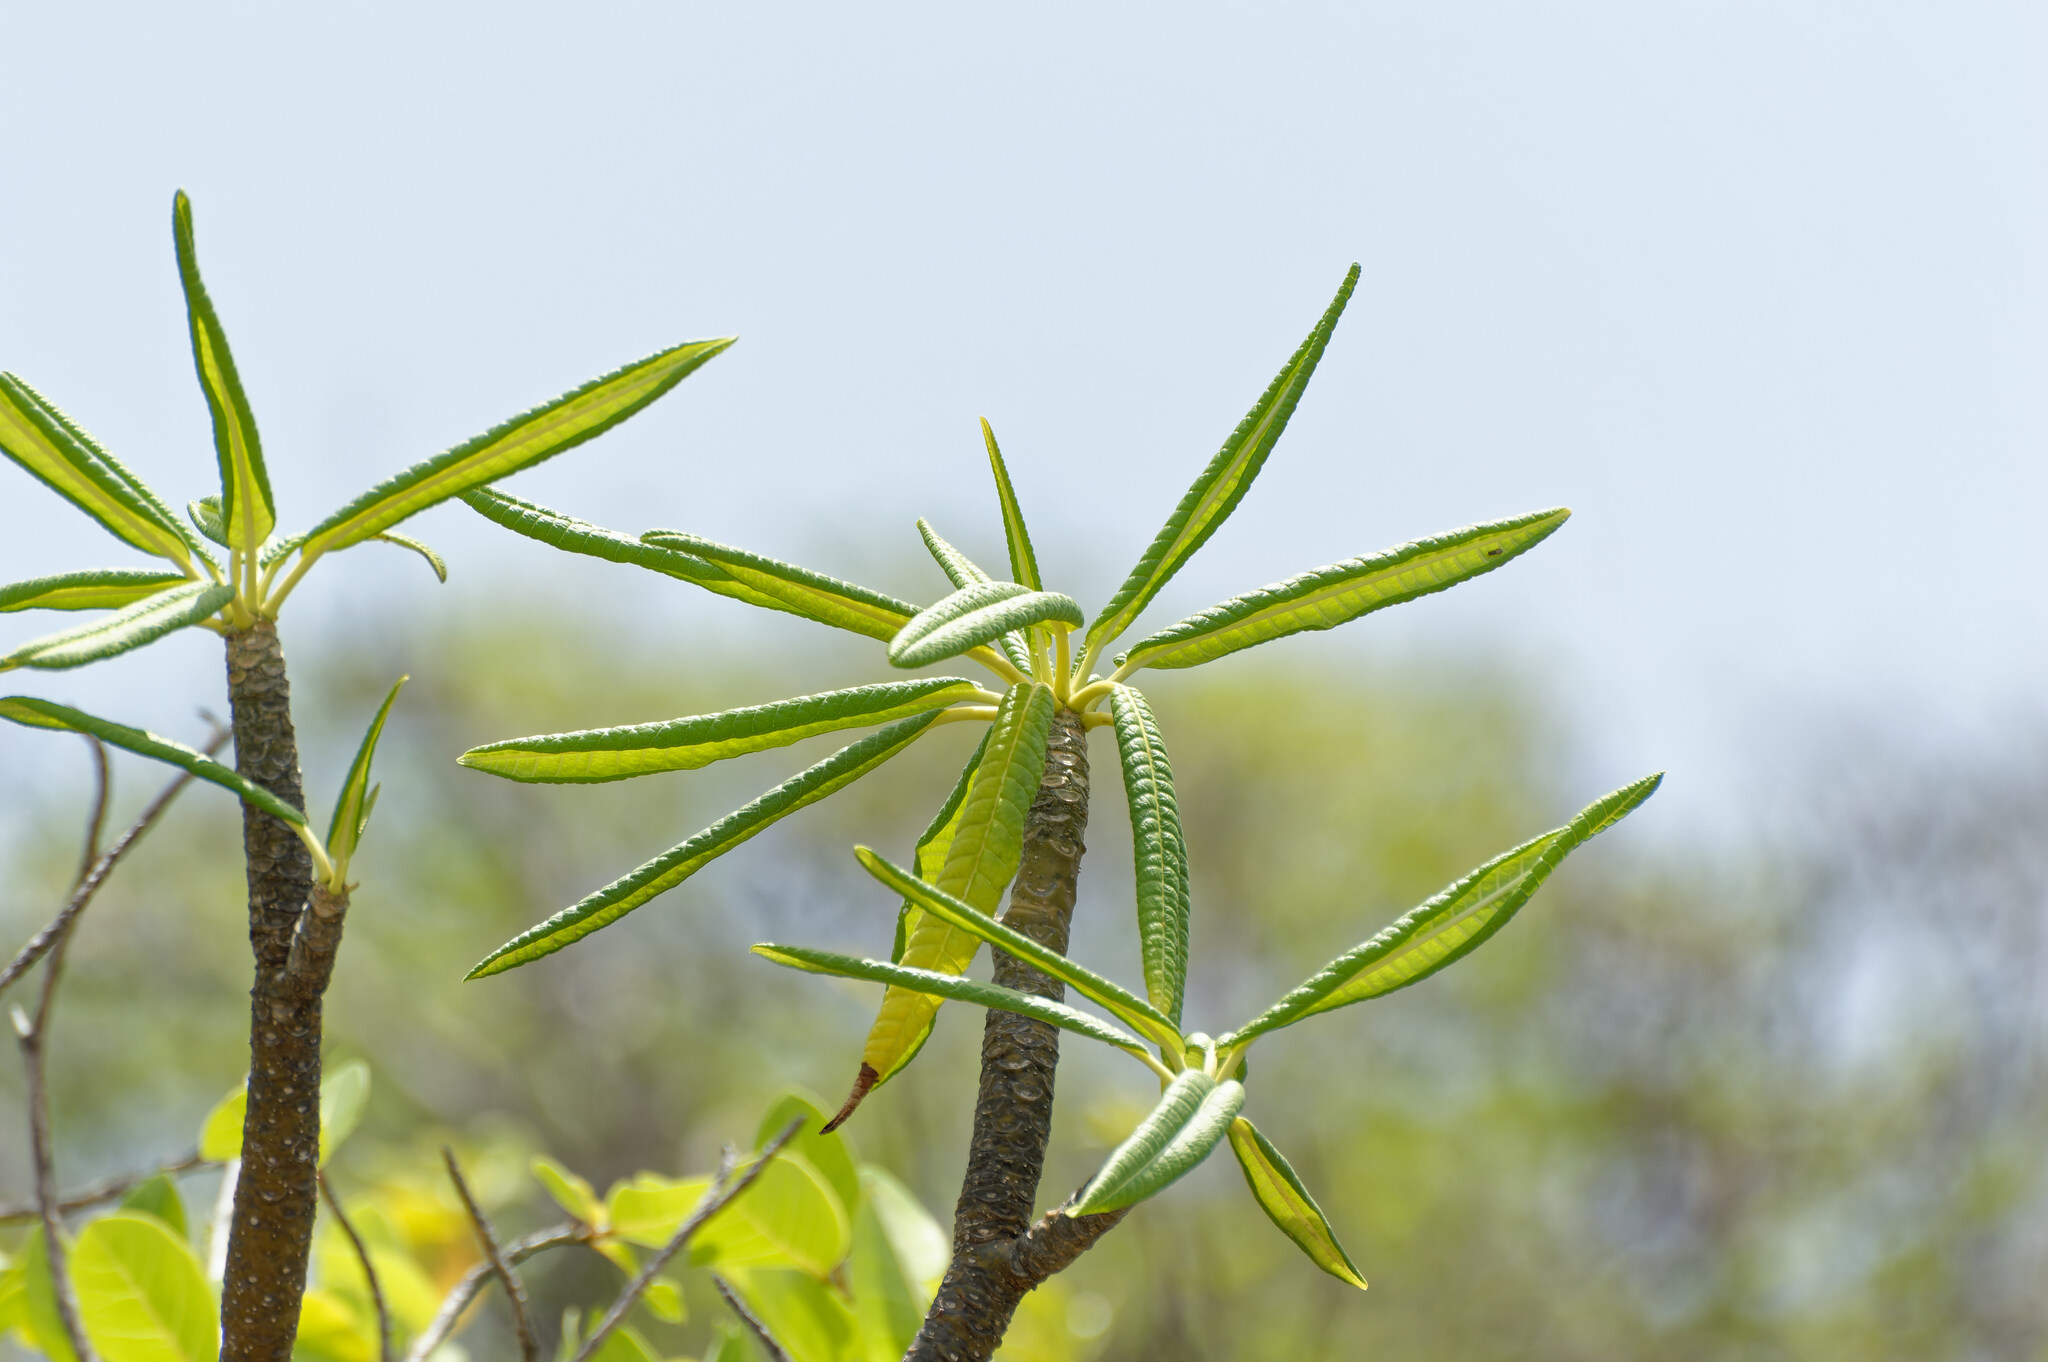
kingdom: Plantae
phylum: Tracheophyta
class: Magnoliopsida
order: Gentianales
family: Apocynaceae
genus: Plumeria
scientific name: Plumeria alba
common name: Wild frangipani
